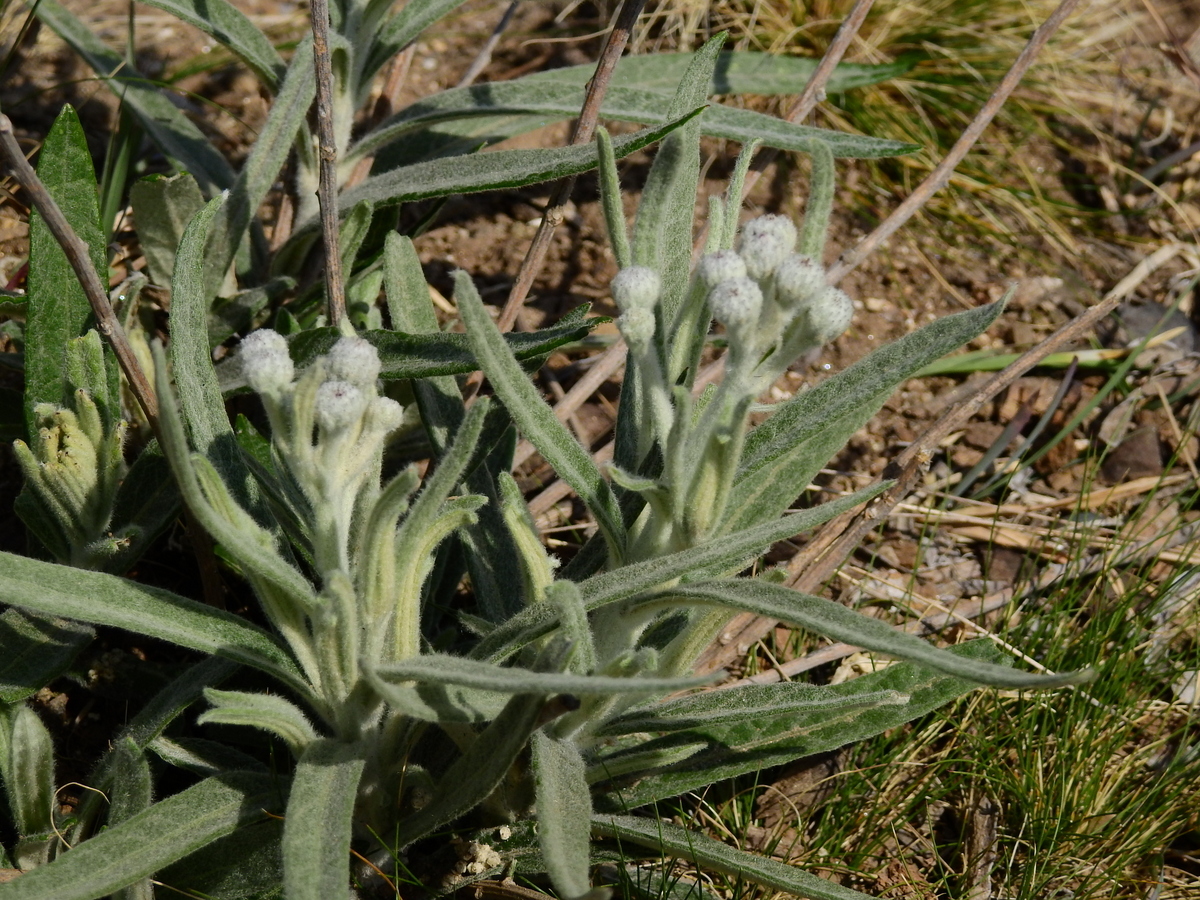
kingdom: Plantae
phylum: Tracheophyta
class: Magnoliopsida
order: Asterales
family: Asteraceae
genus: Lessingianthus
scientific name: Lessingianthus mollissimus
